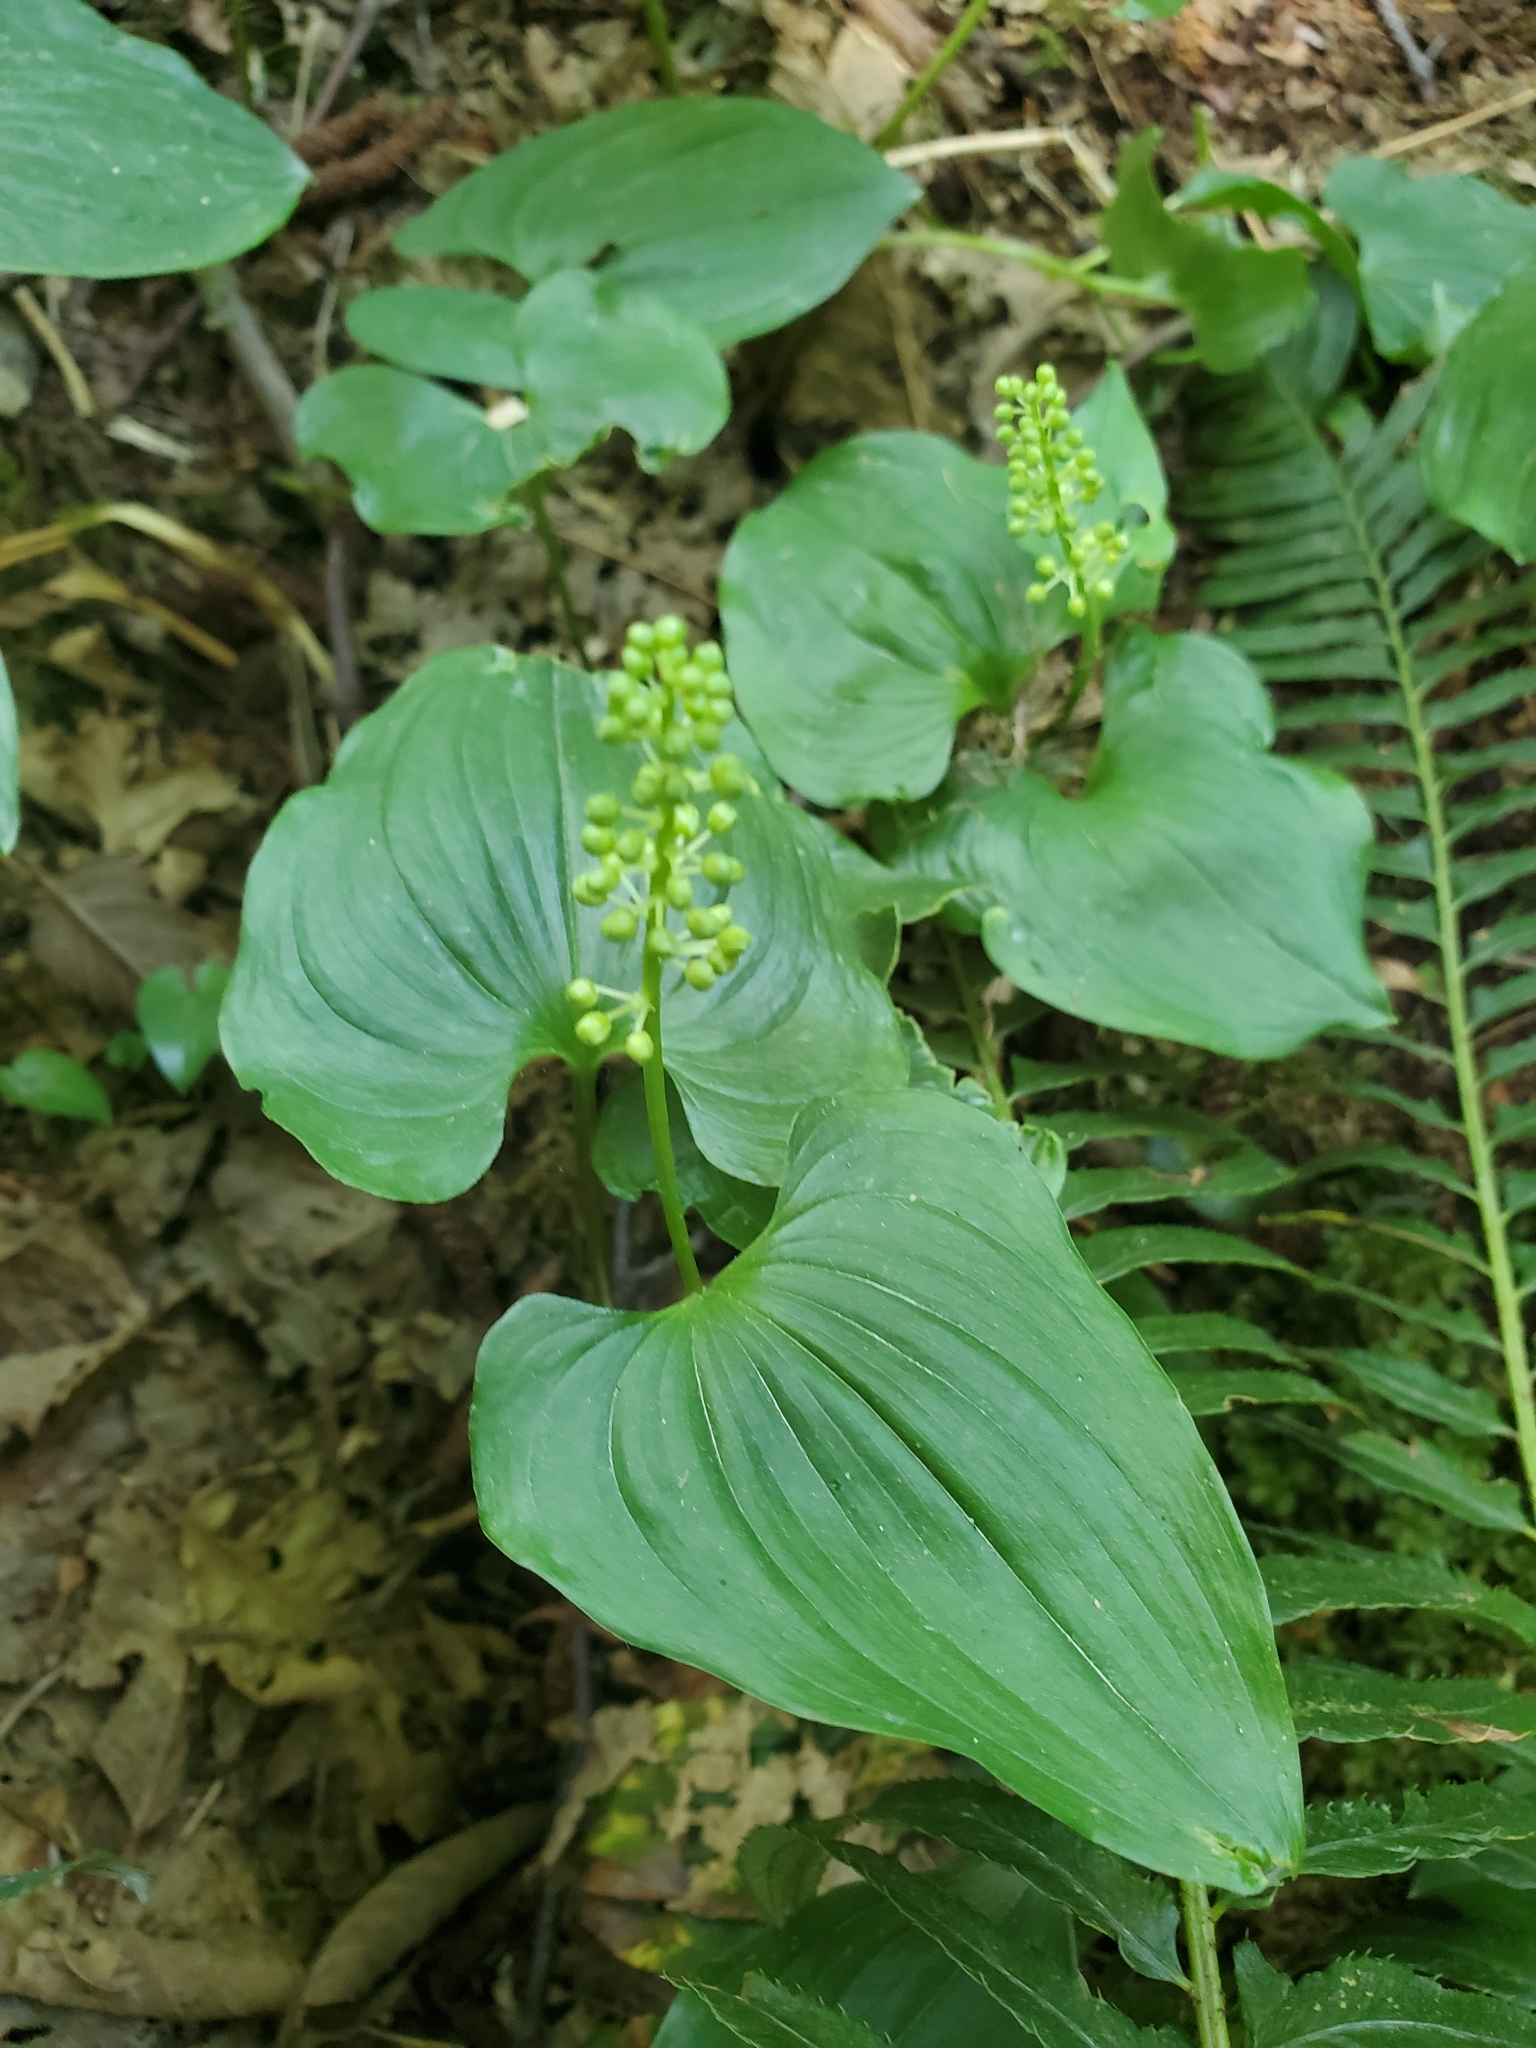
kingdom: Plantae
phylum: Tracheophyta
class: Liliopsida
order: Asparagales
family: Asparagaceae
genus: Maianthemum
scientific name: Maianthemum dilatatum
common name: False lily-of-the-valley
